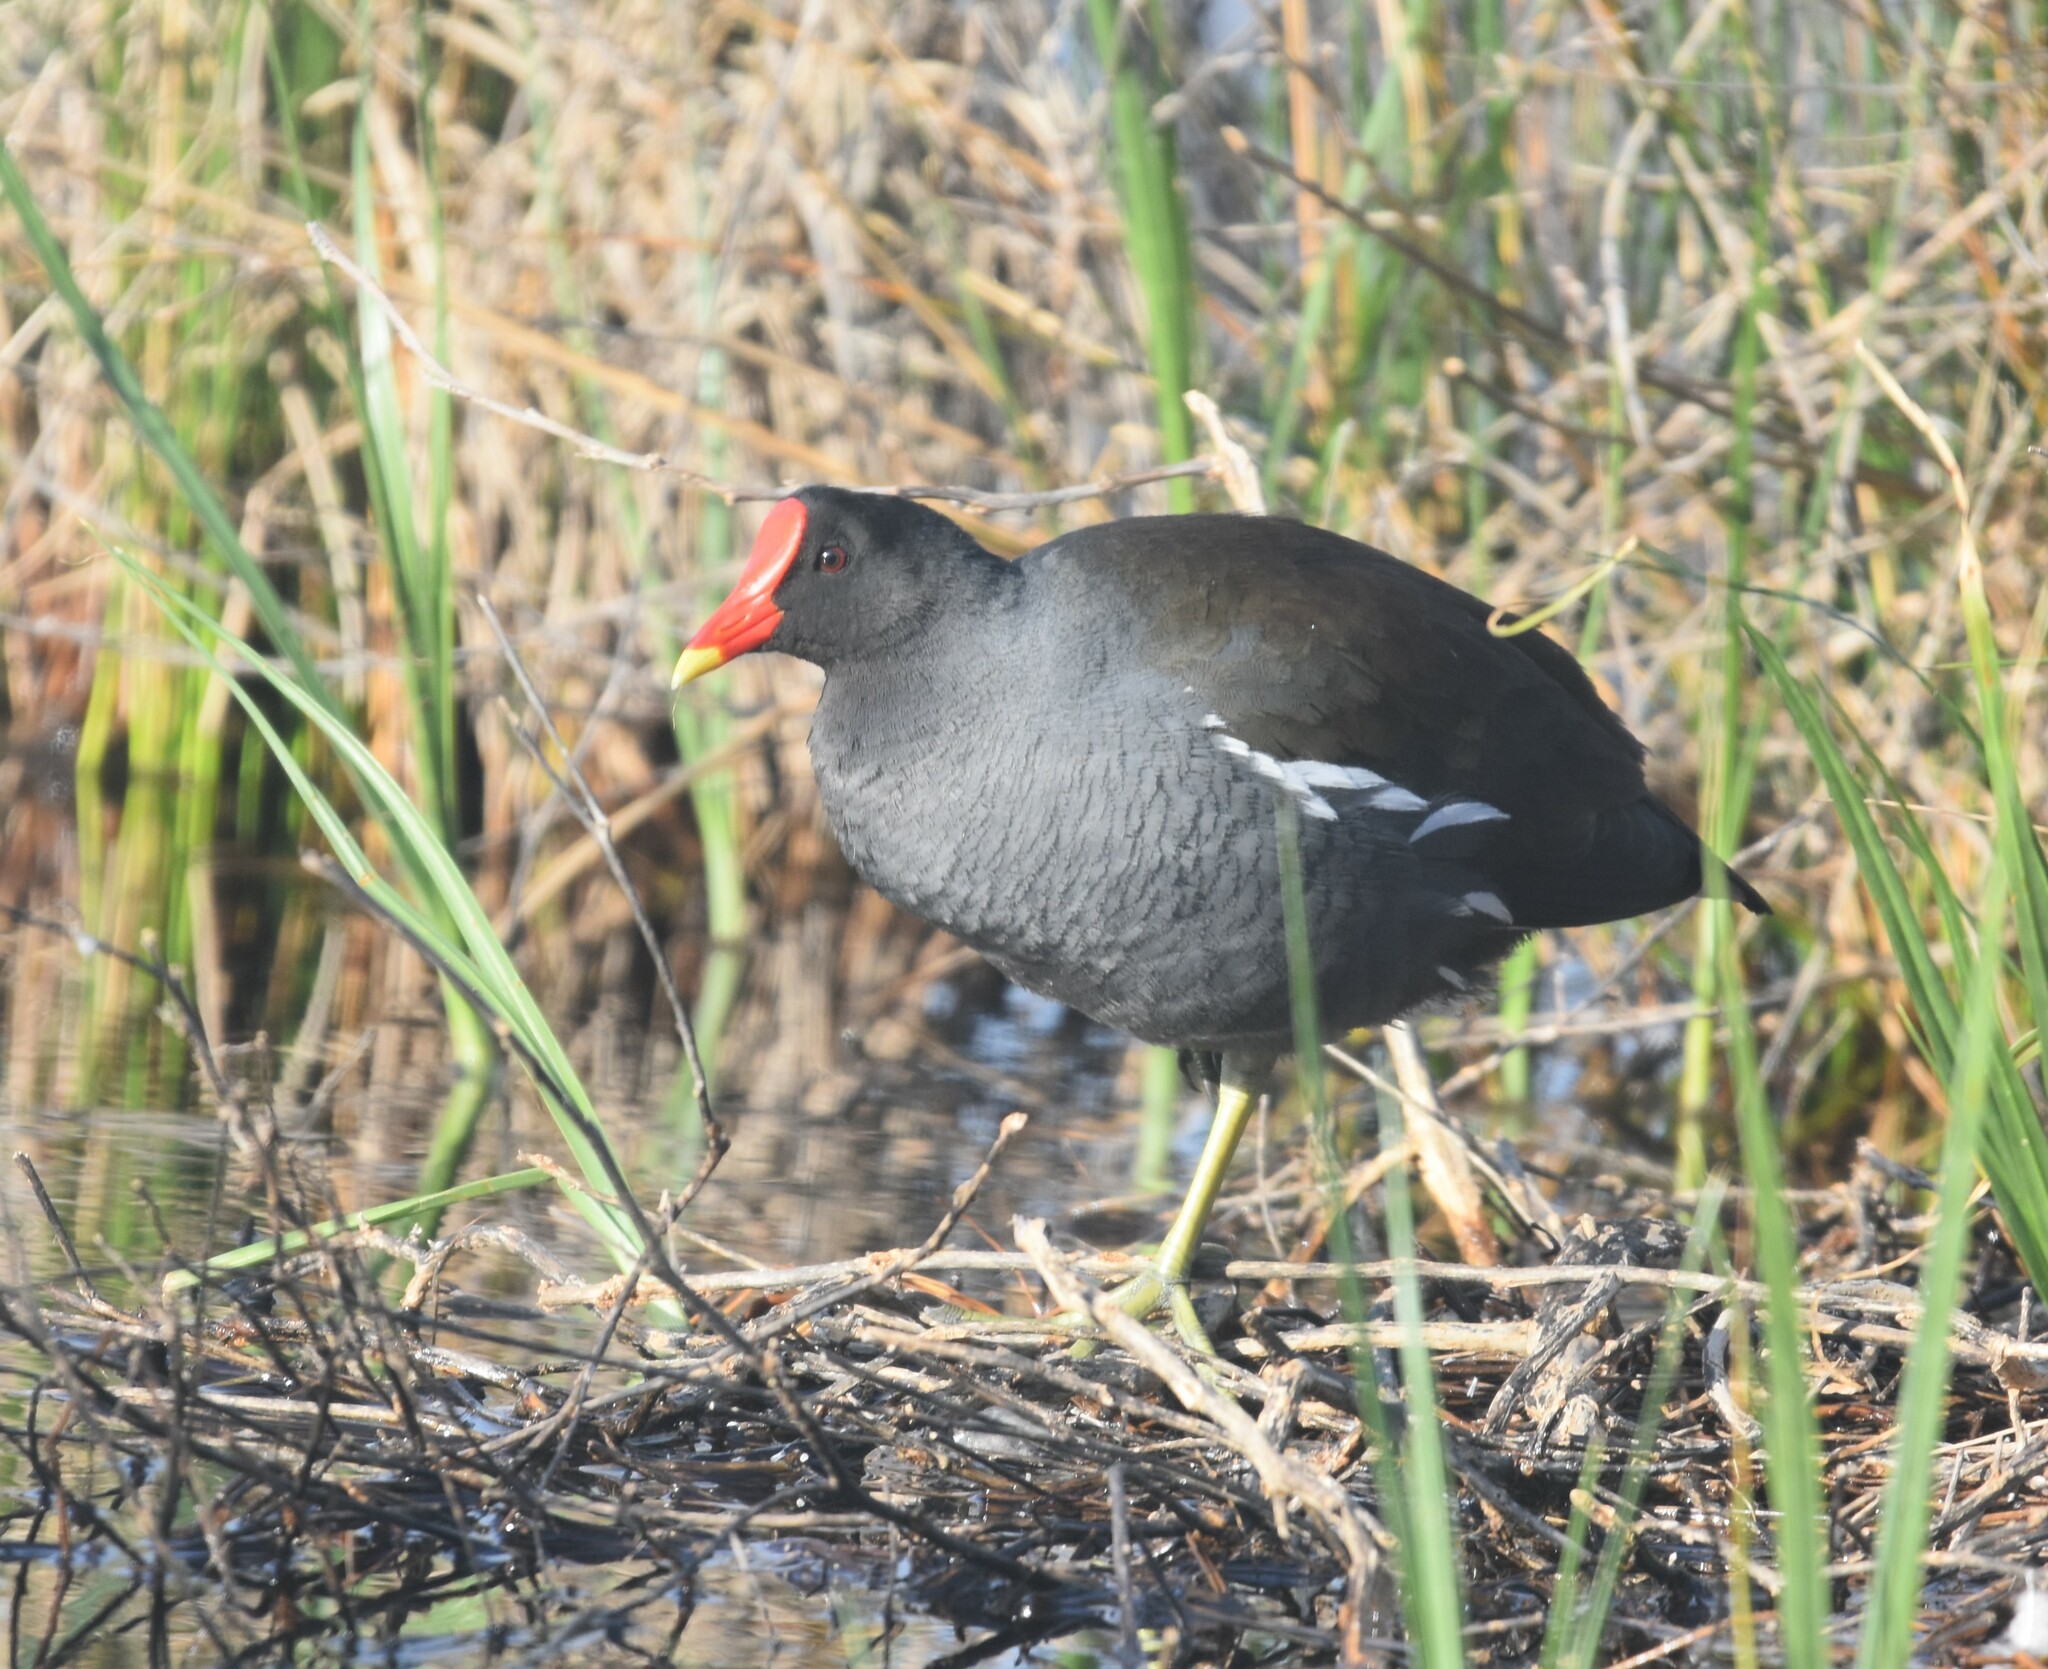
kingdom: Animalia
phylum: Chordata
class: Aves
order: Gruiformes
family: Rallidae
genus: Gallinula
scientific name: Gallinula chloropus
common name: Common moorhen
